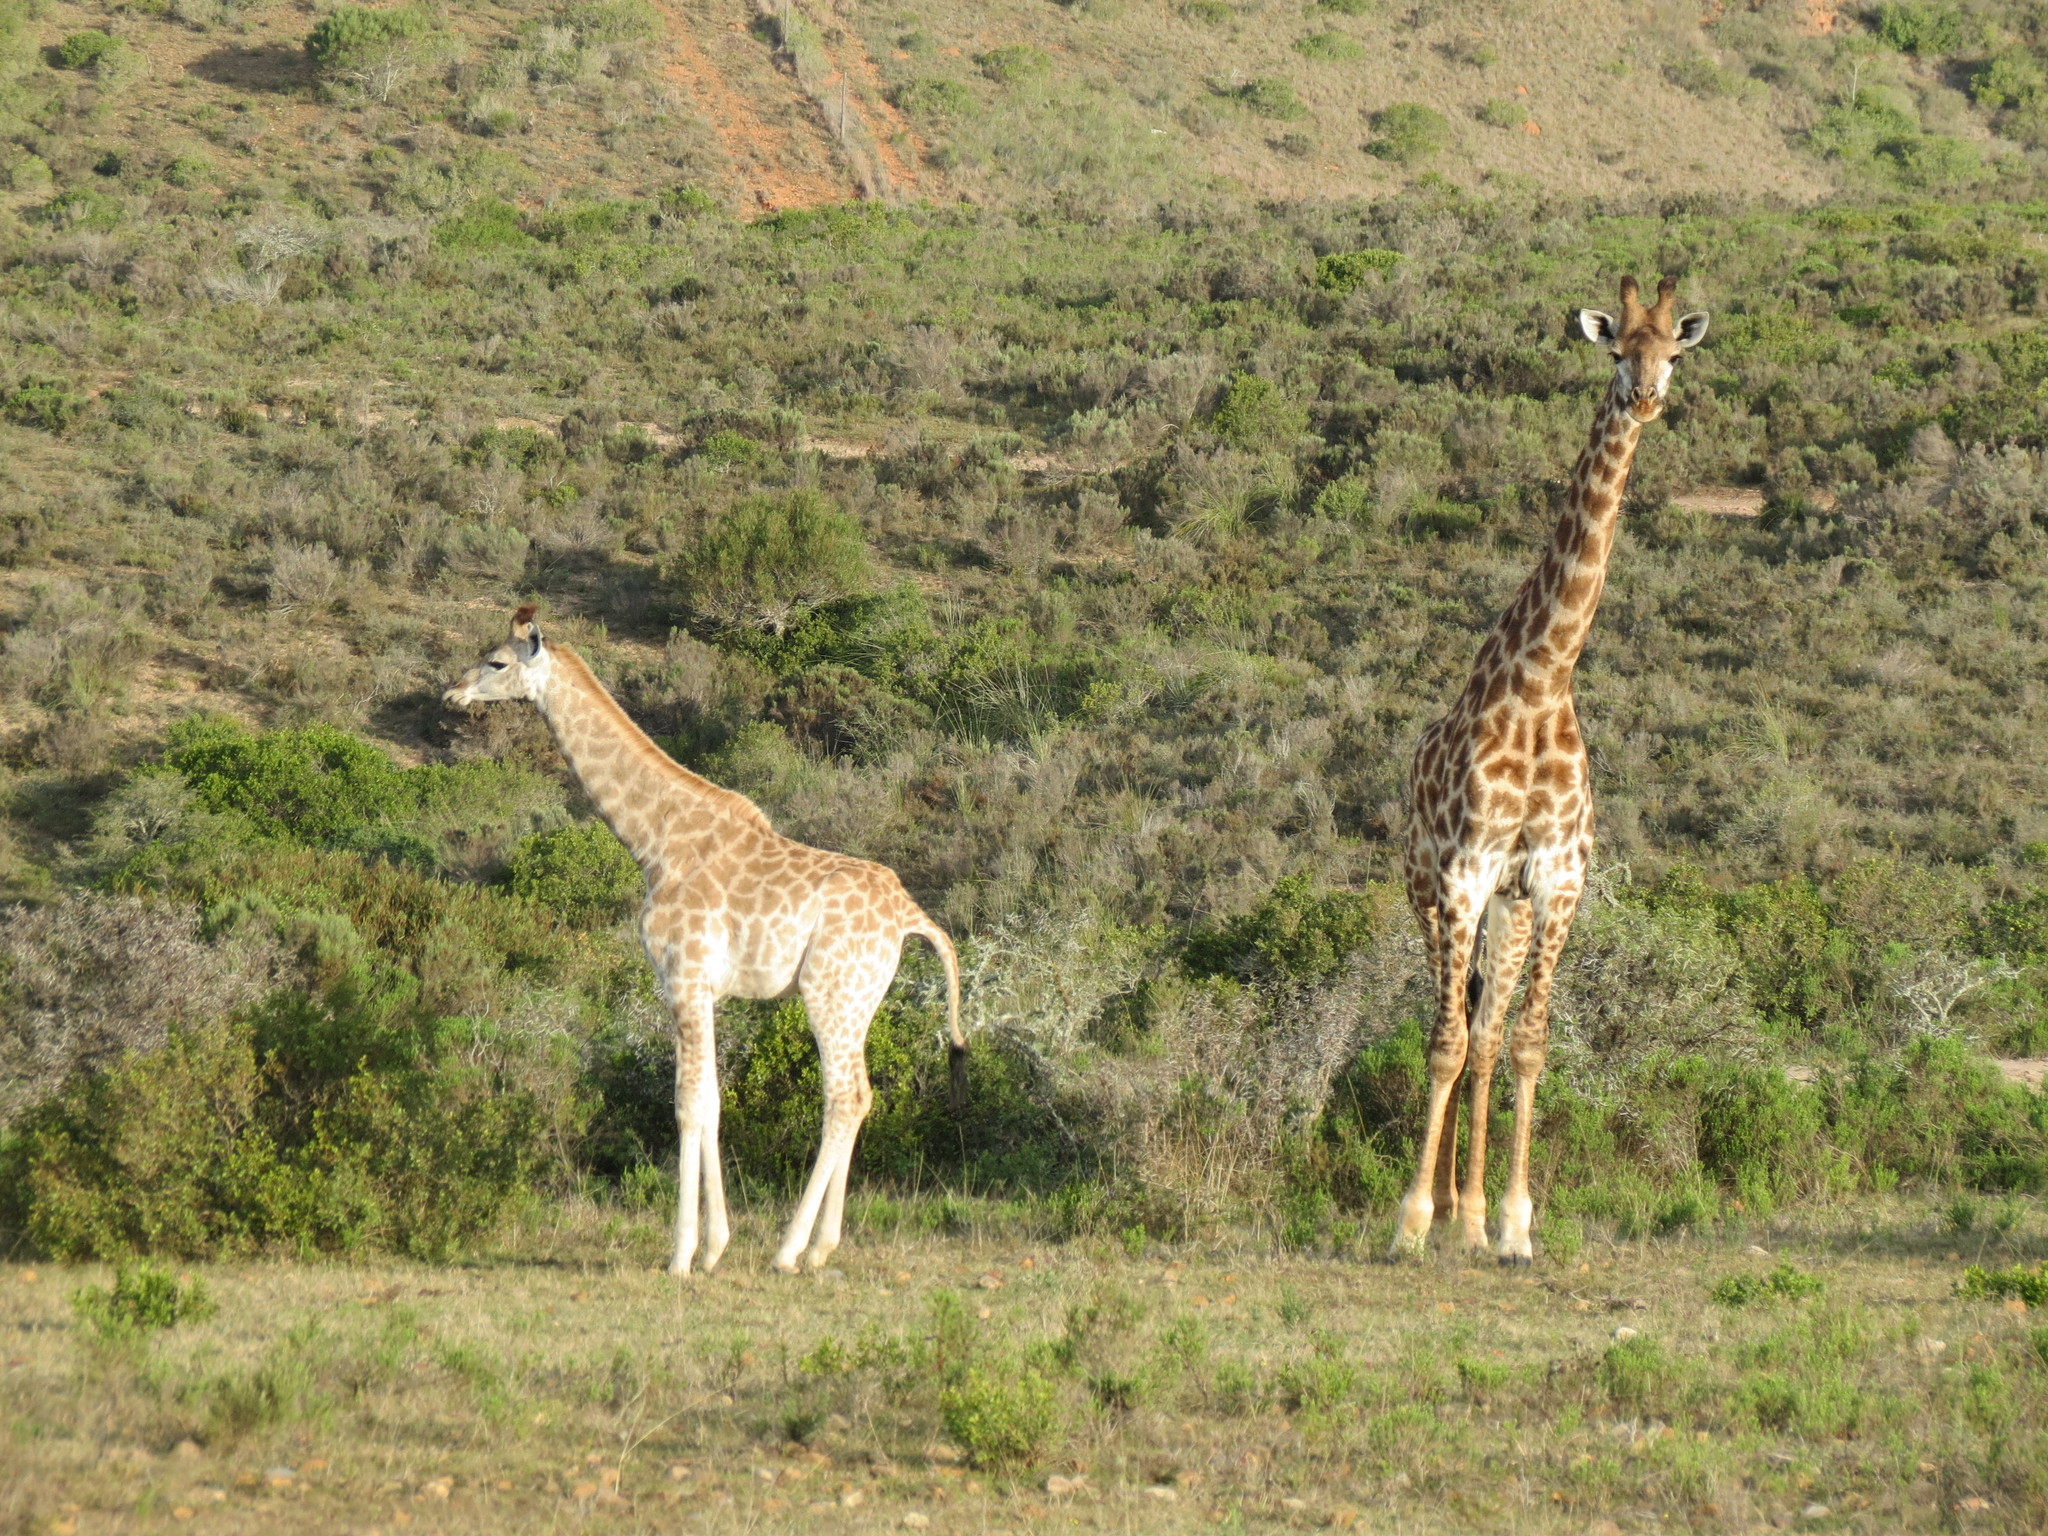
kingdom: Animalia
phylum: Chordata
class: Mammalia
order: Artiodactyla
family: Giraffidae
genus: Giraffa
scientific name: Giraffa giraffa
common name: Southern giraffe
